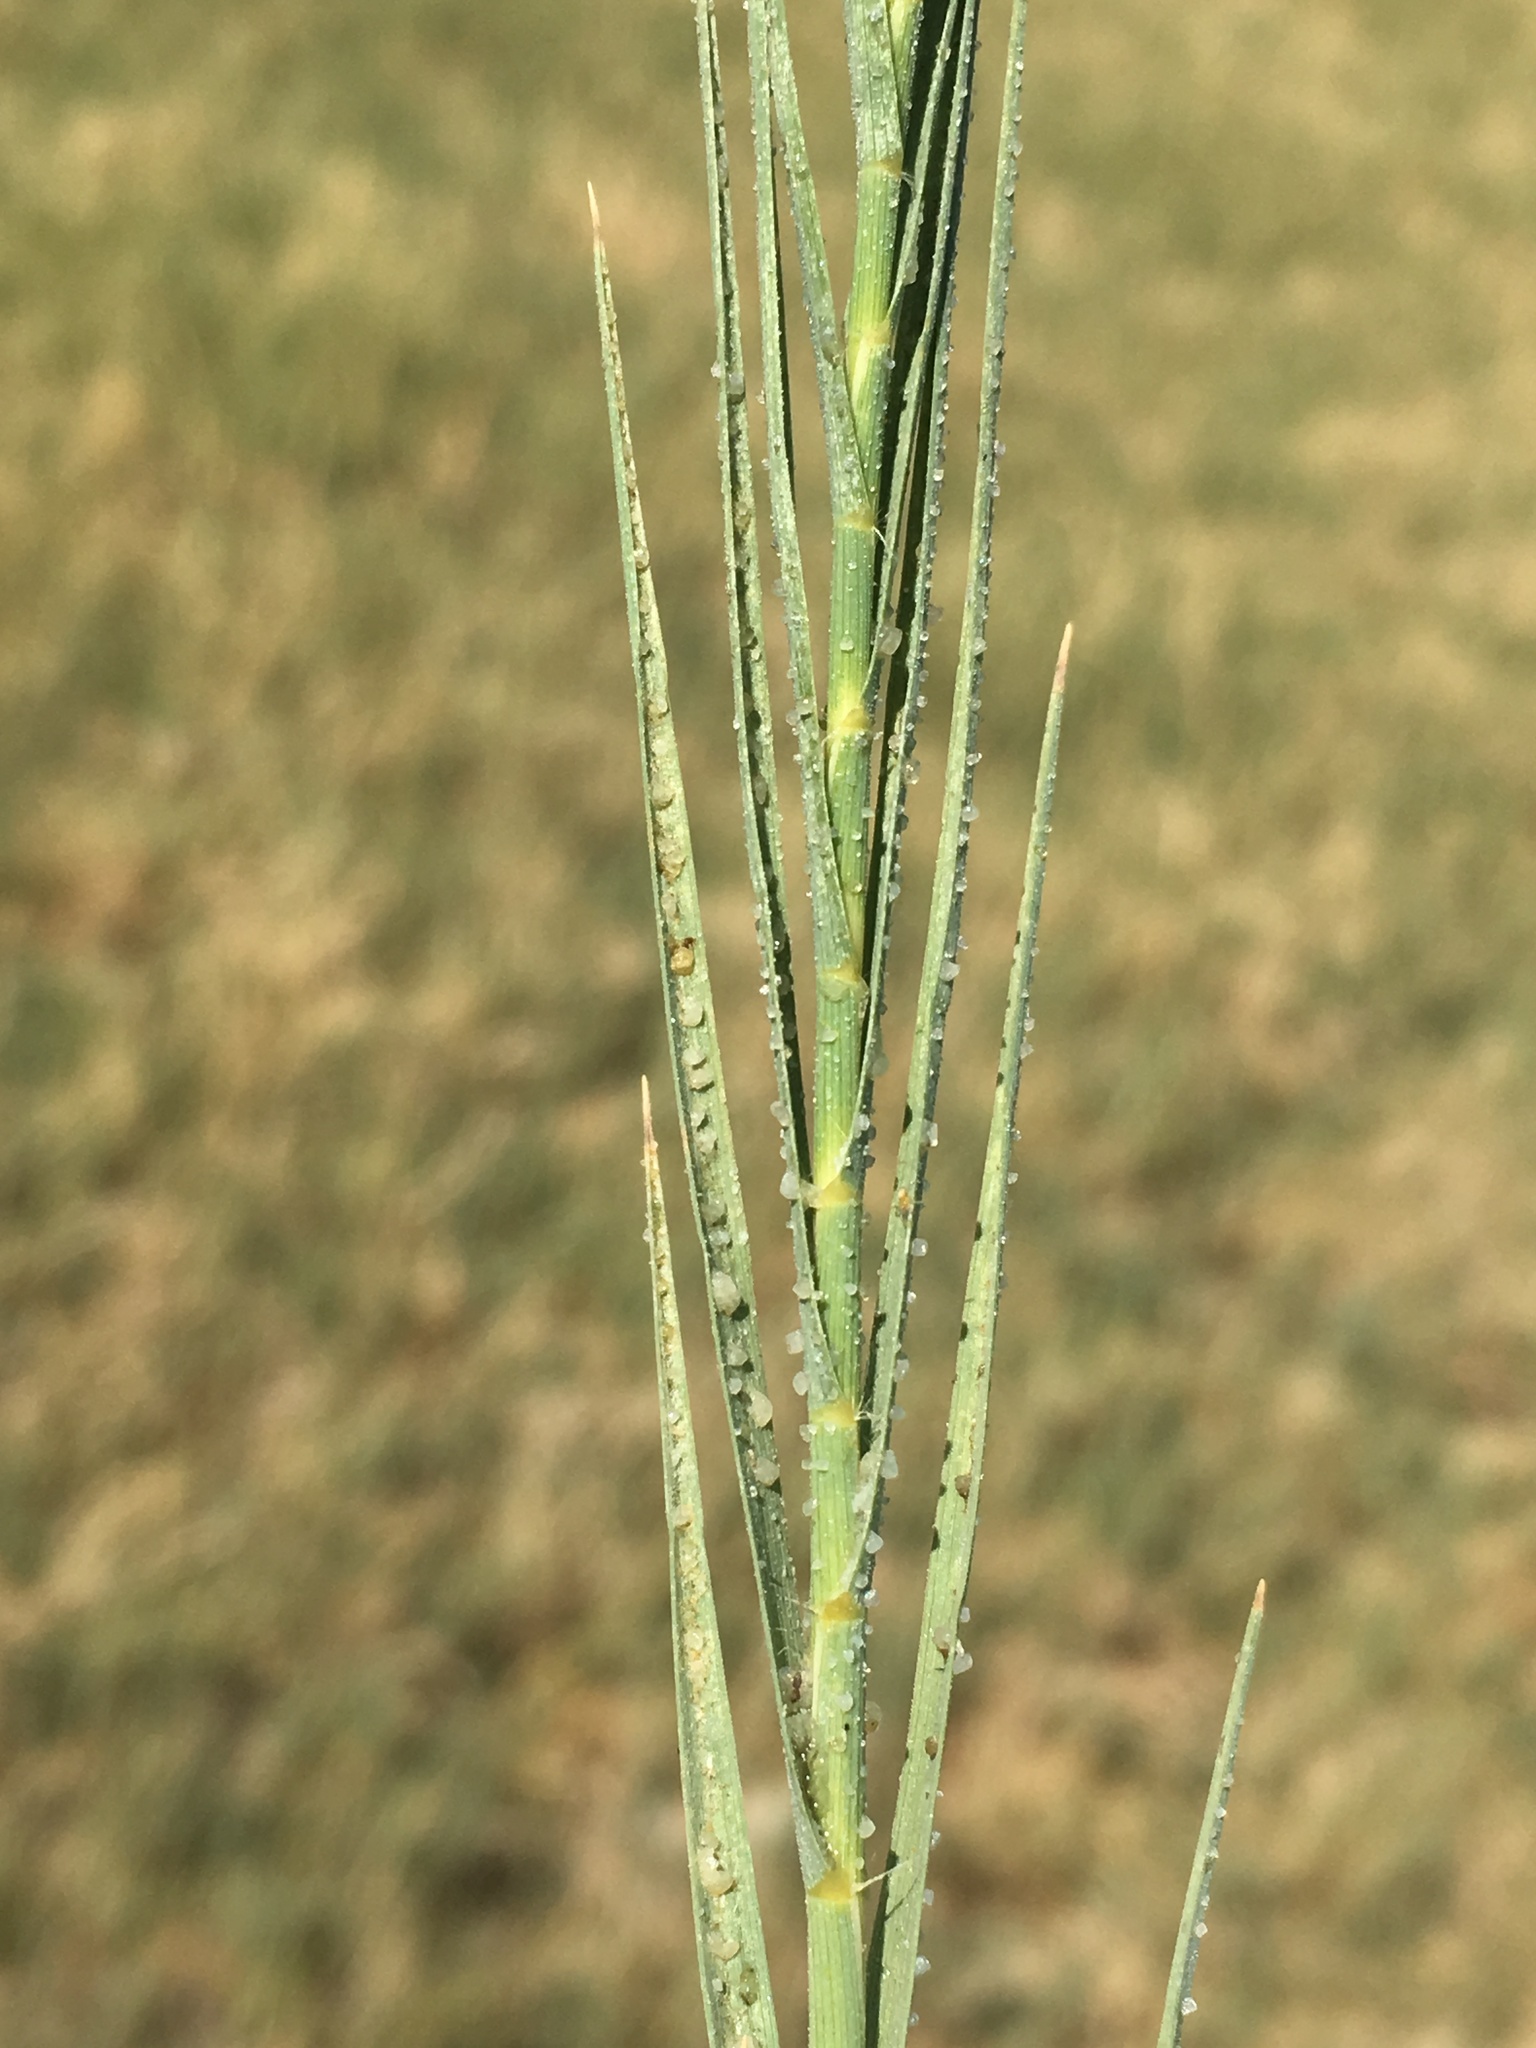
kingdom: Plantae
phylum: Tracheophyta
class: Liliopsida
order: Poales
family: Poaceae
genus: Distichlis
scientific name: Distichlis spicata
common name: Saltgrass
